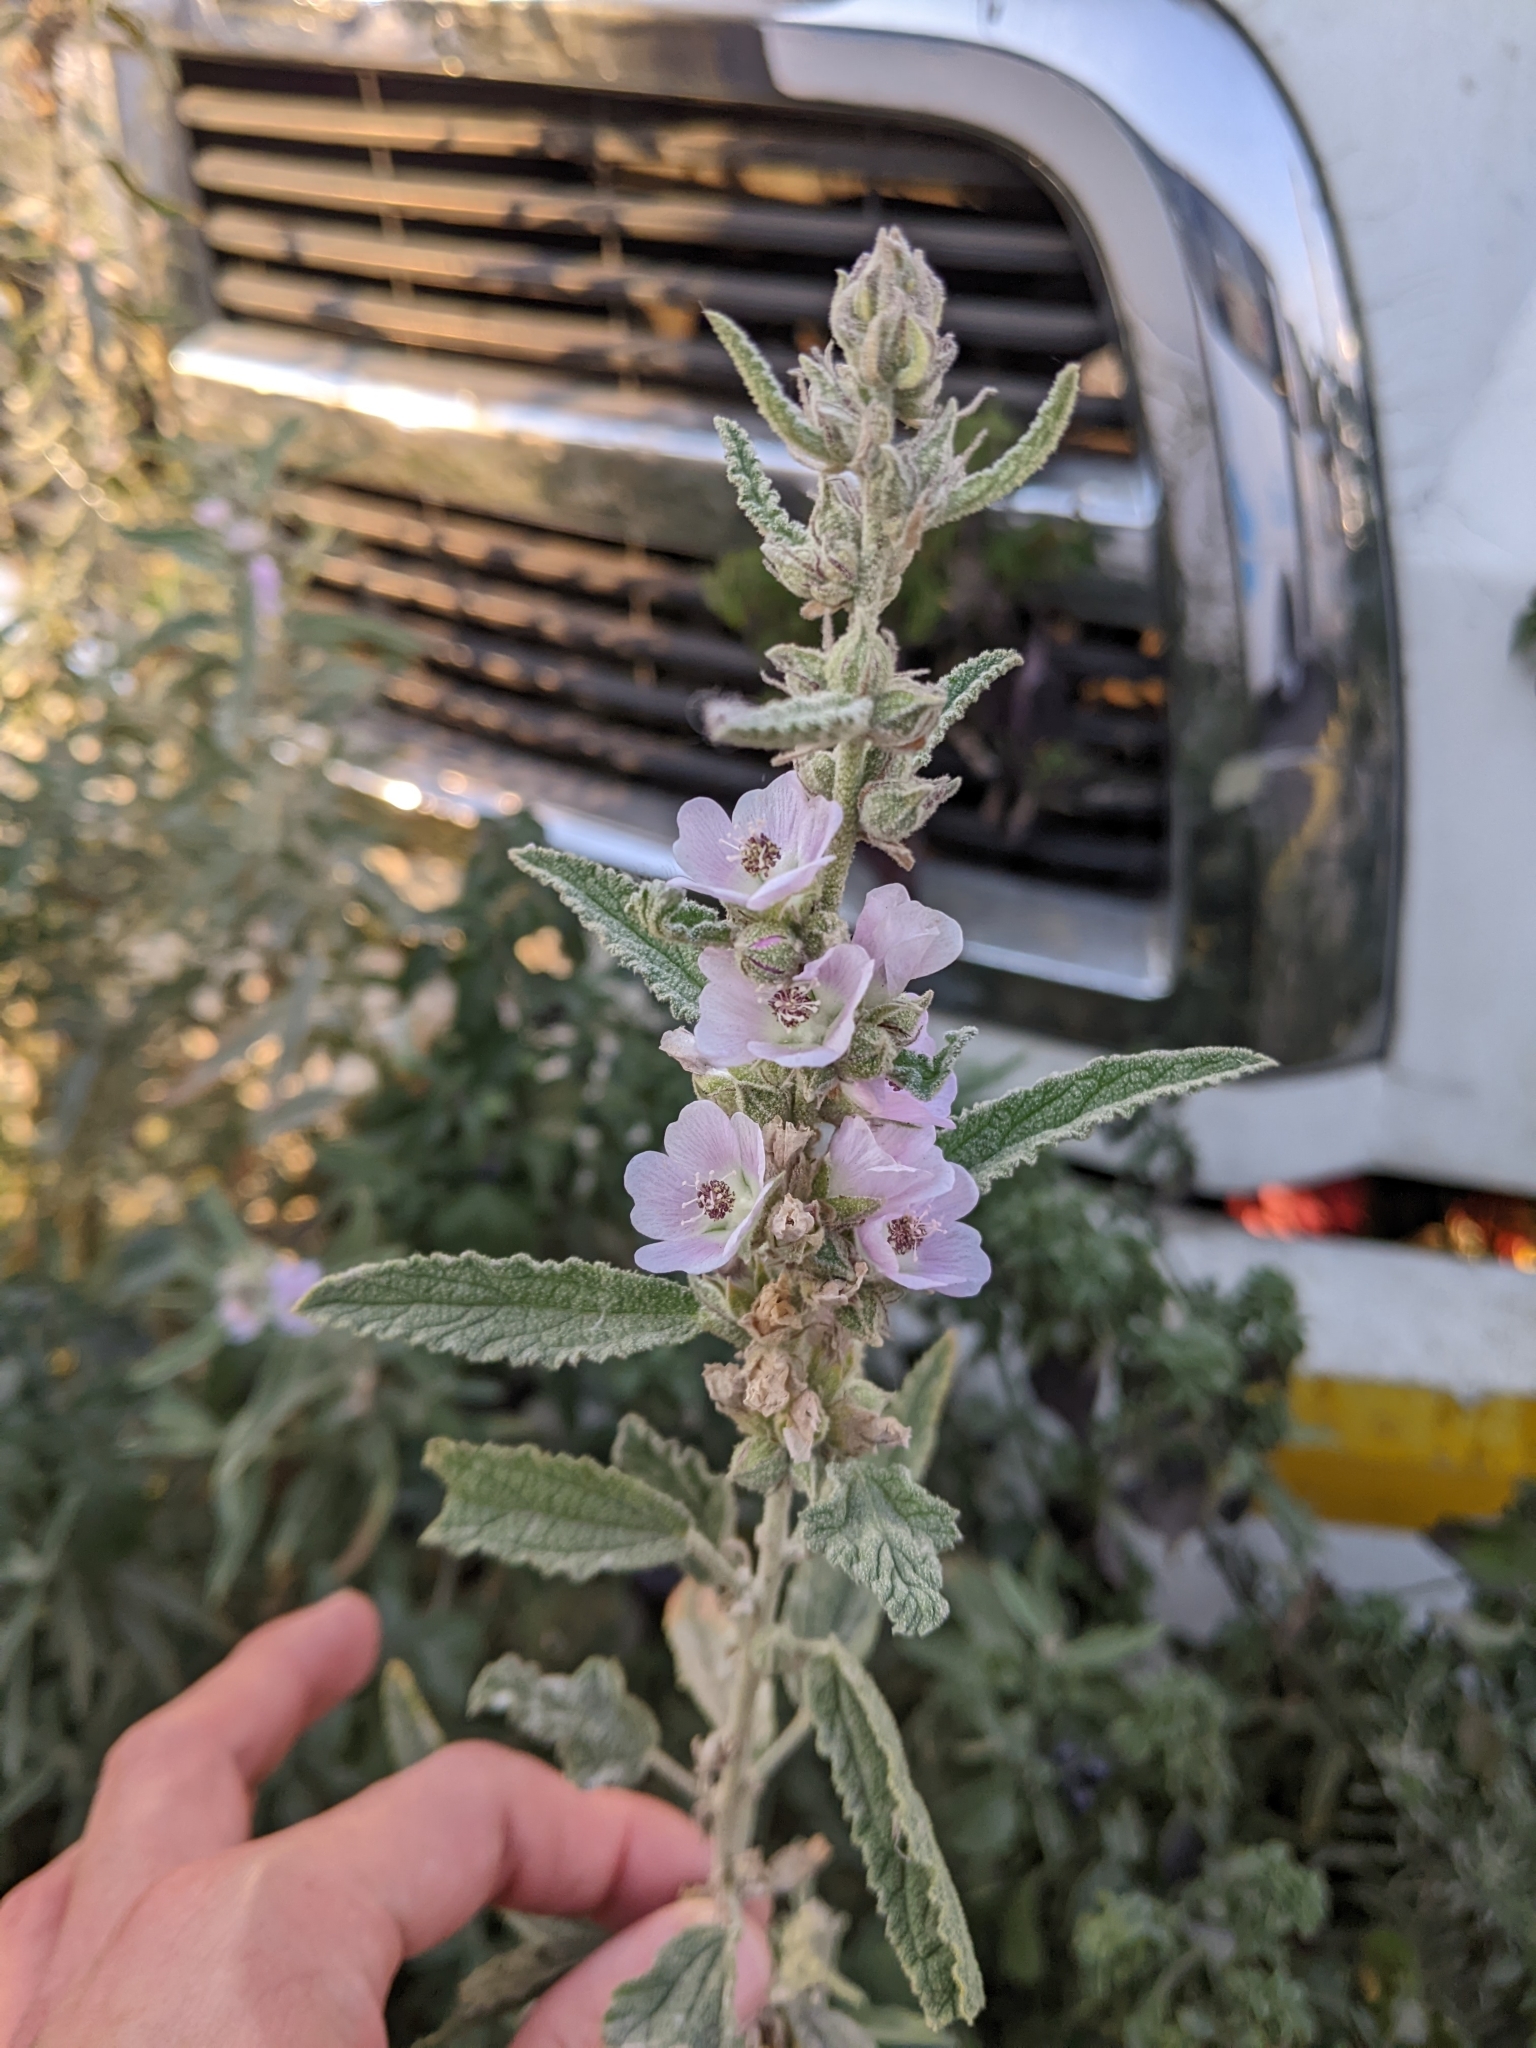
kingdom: Plantae
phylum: Tracheophyta
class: Magnoliopsida
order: Malvales
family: Malvaceae
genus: Sphaeralcea
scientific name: Sphaeralcea angustifolia
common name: Copper globe-mallow
